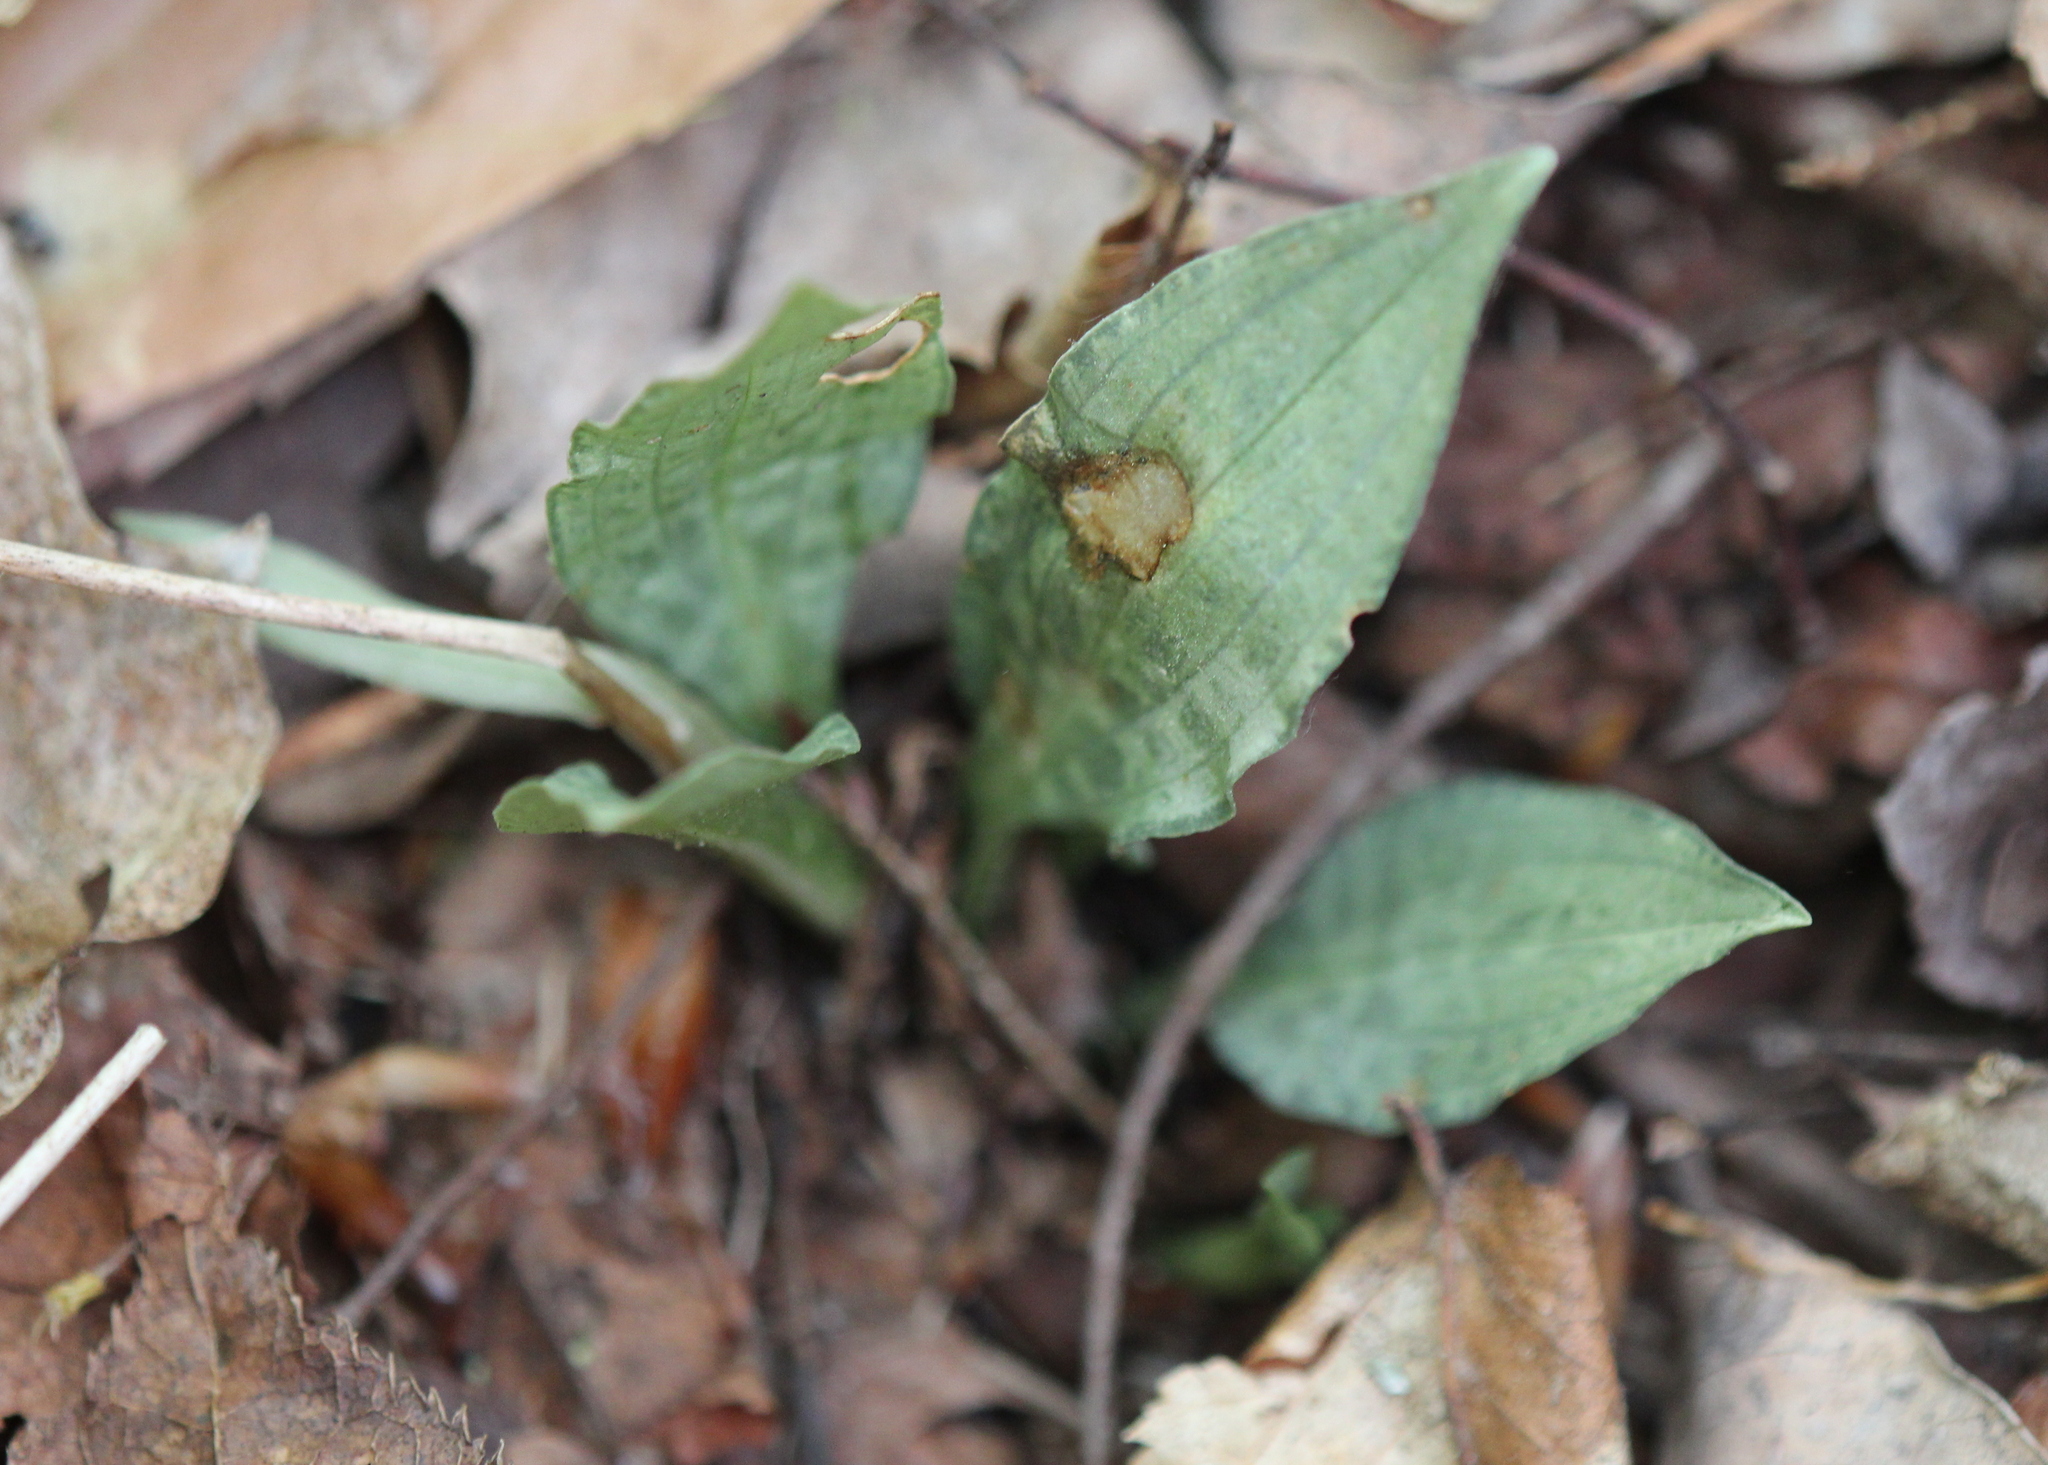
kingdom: Plantae
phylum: Tracheophyta
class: Liliopsida
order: Asparagales
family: Orchidaceae
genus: Goodyera
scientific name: Goodyera tesselata
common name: Checkered rattlesnake-plantain
